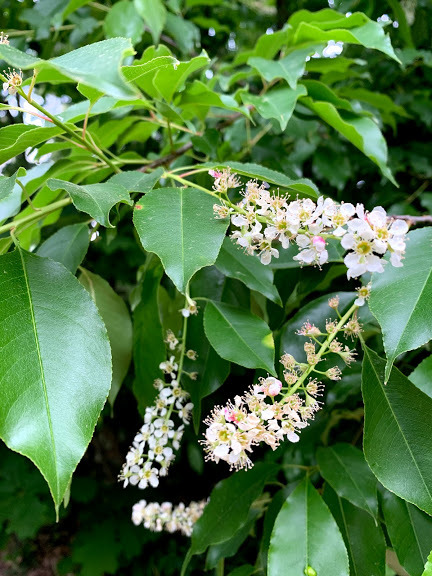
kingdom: Plantae
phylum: Tracheophyta
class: Magnoliopsida
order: Rosales
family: Rosaceae
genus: Prunus
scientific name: Prunus serotina
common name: Black cherry
